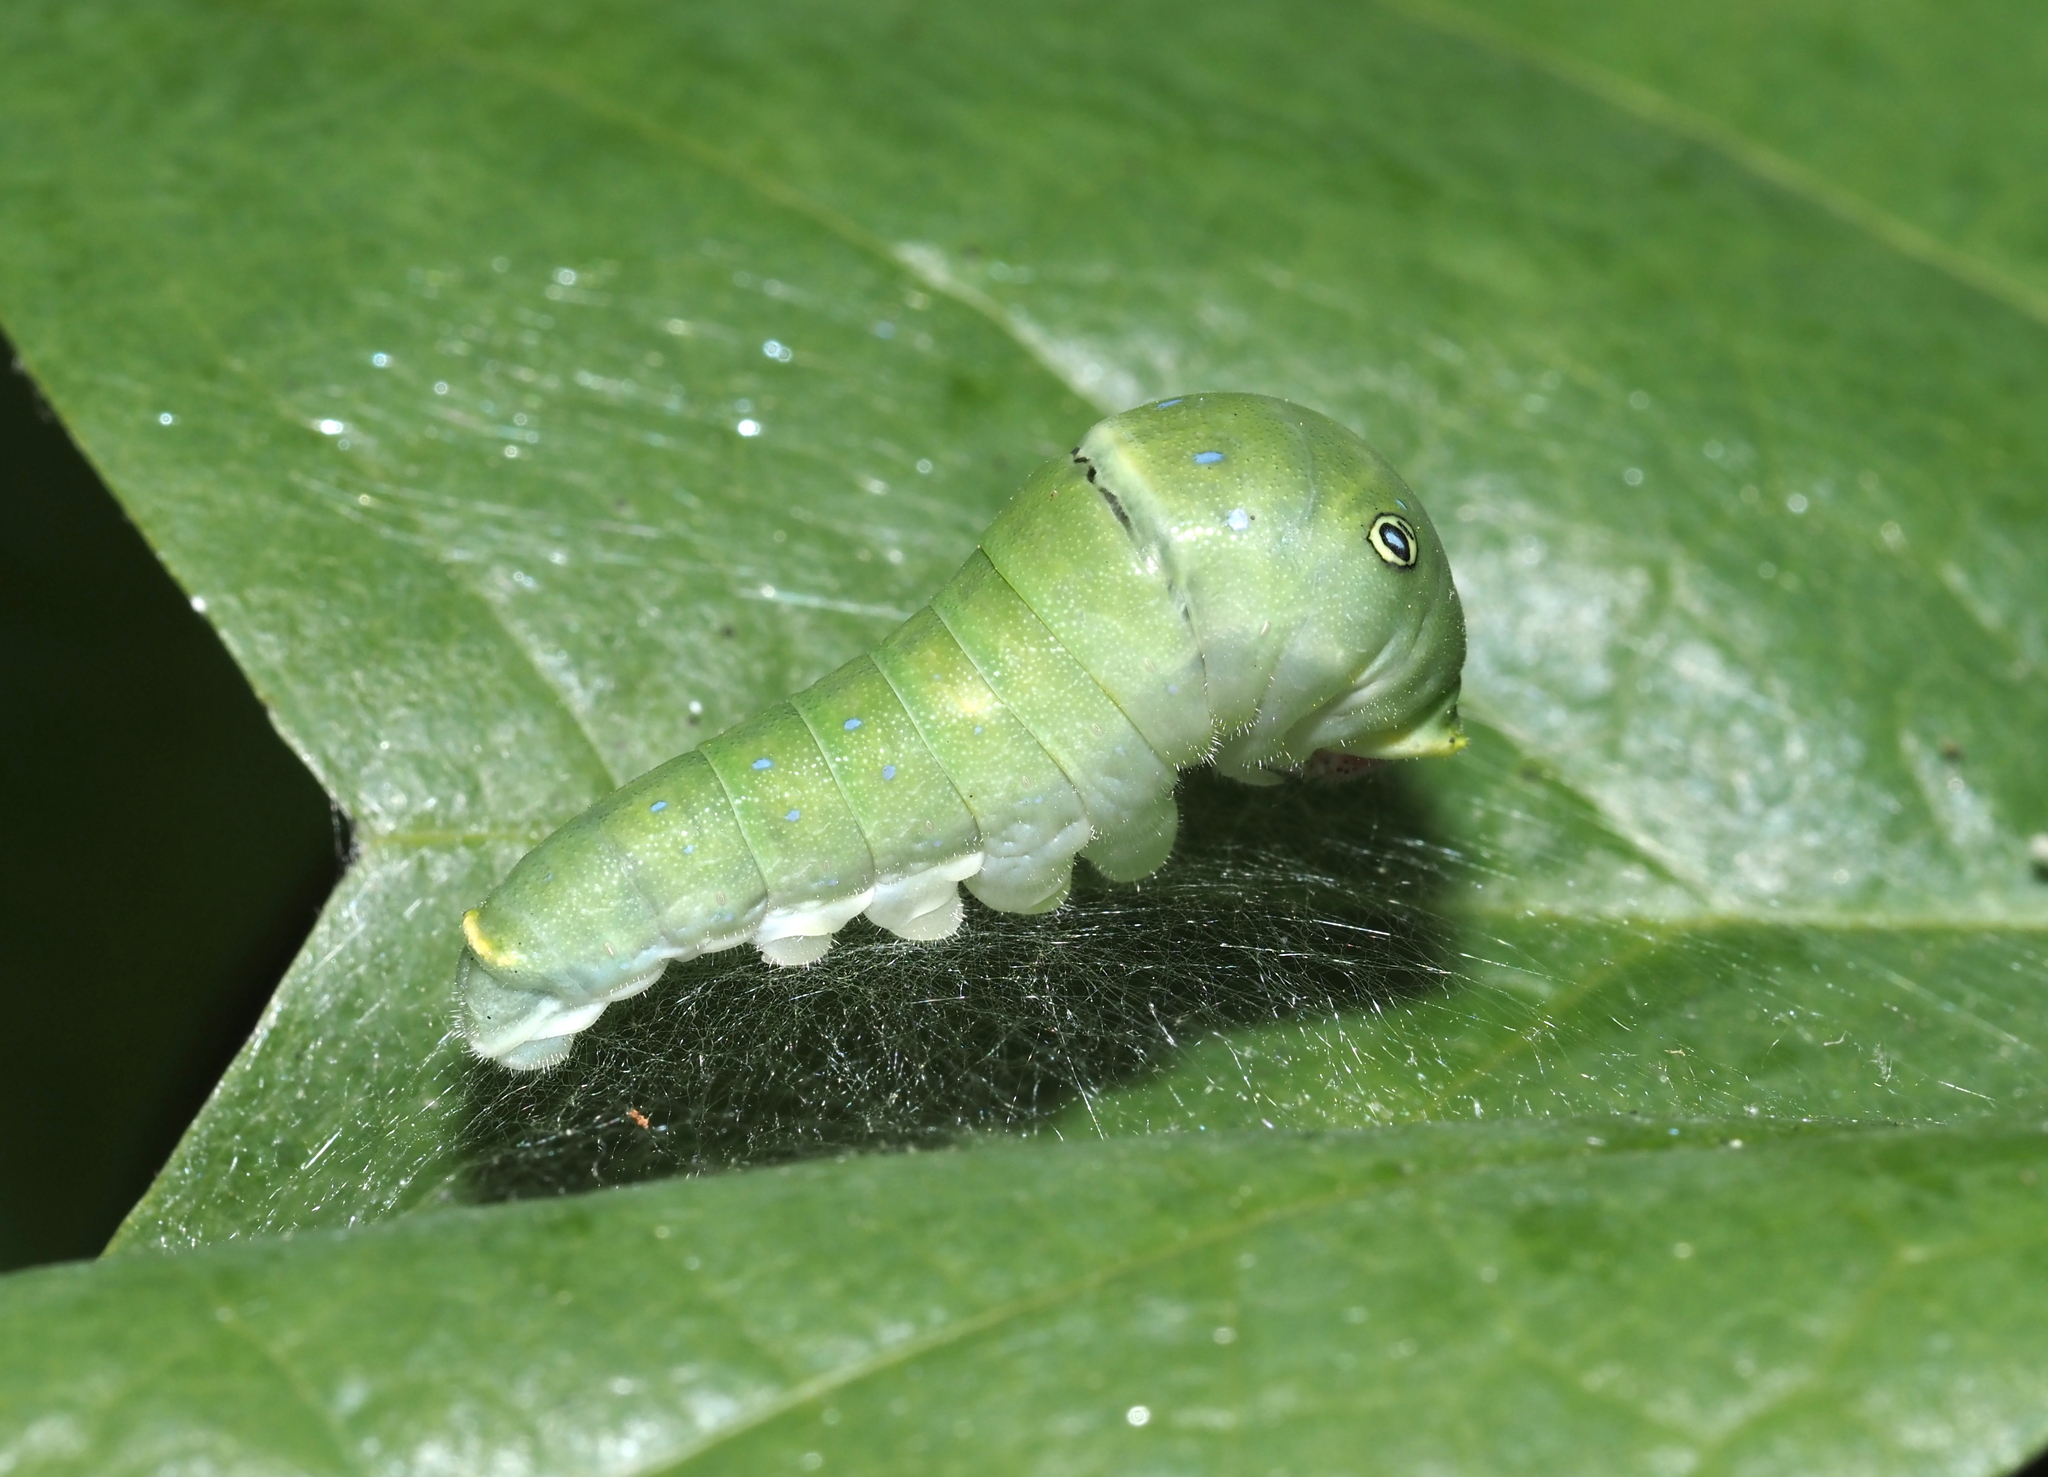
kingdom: Animalia
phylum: Arthropoda
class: Insecta
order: Lepidoptera
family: Papilionidae
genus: Papilio
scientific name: Papilio glaucus
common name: Tiger swallowtail
